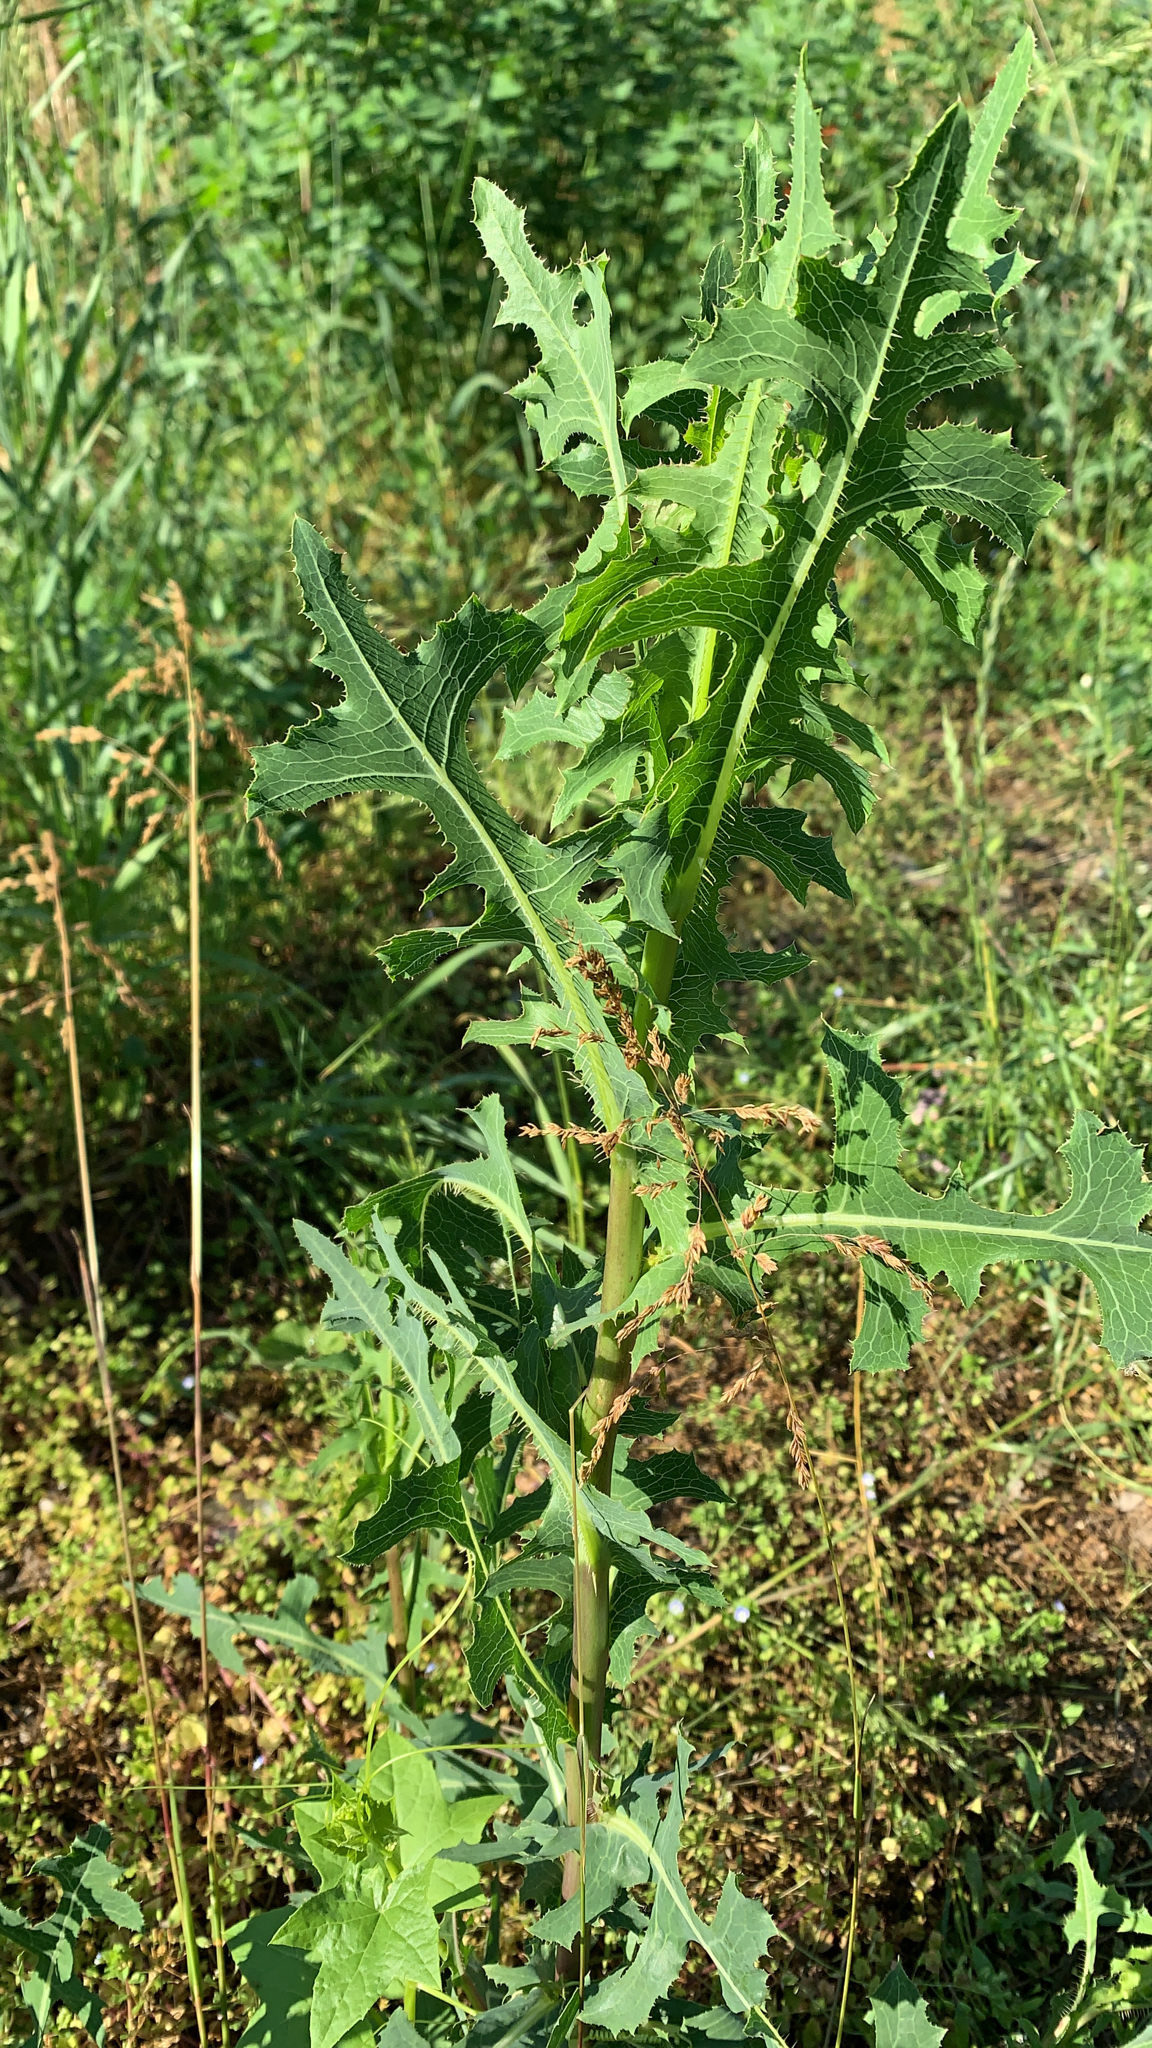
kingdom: Plantae
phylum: Tracheophyta
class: Magnoliopsida
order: Asterales
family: Asteraceae
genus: Lactuca
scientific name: Lactuca serriola
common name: Prickly lettuce
